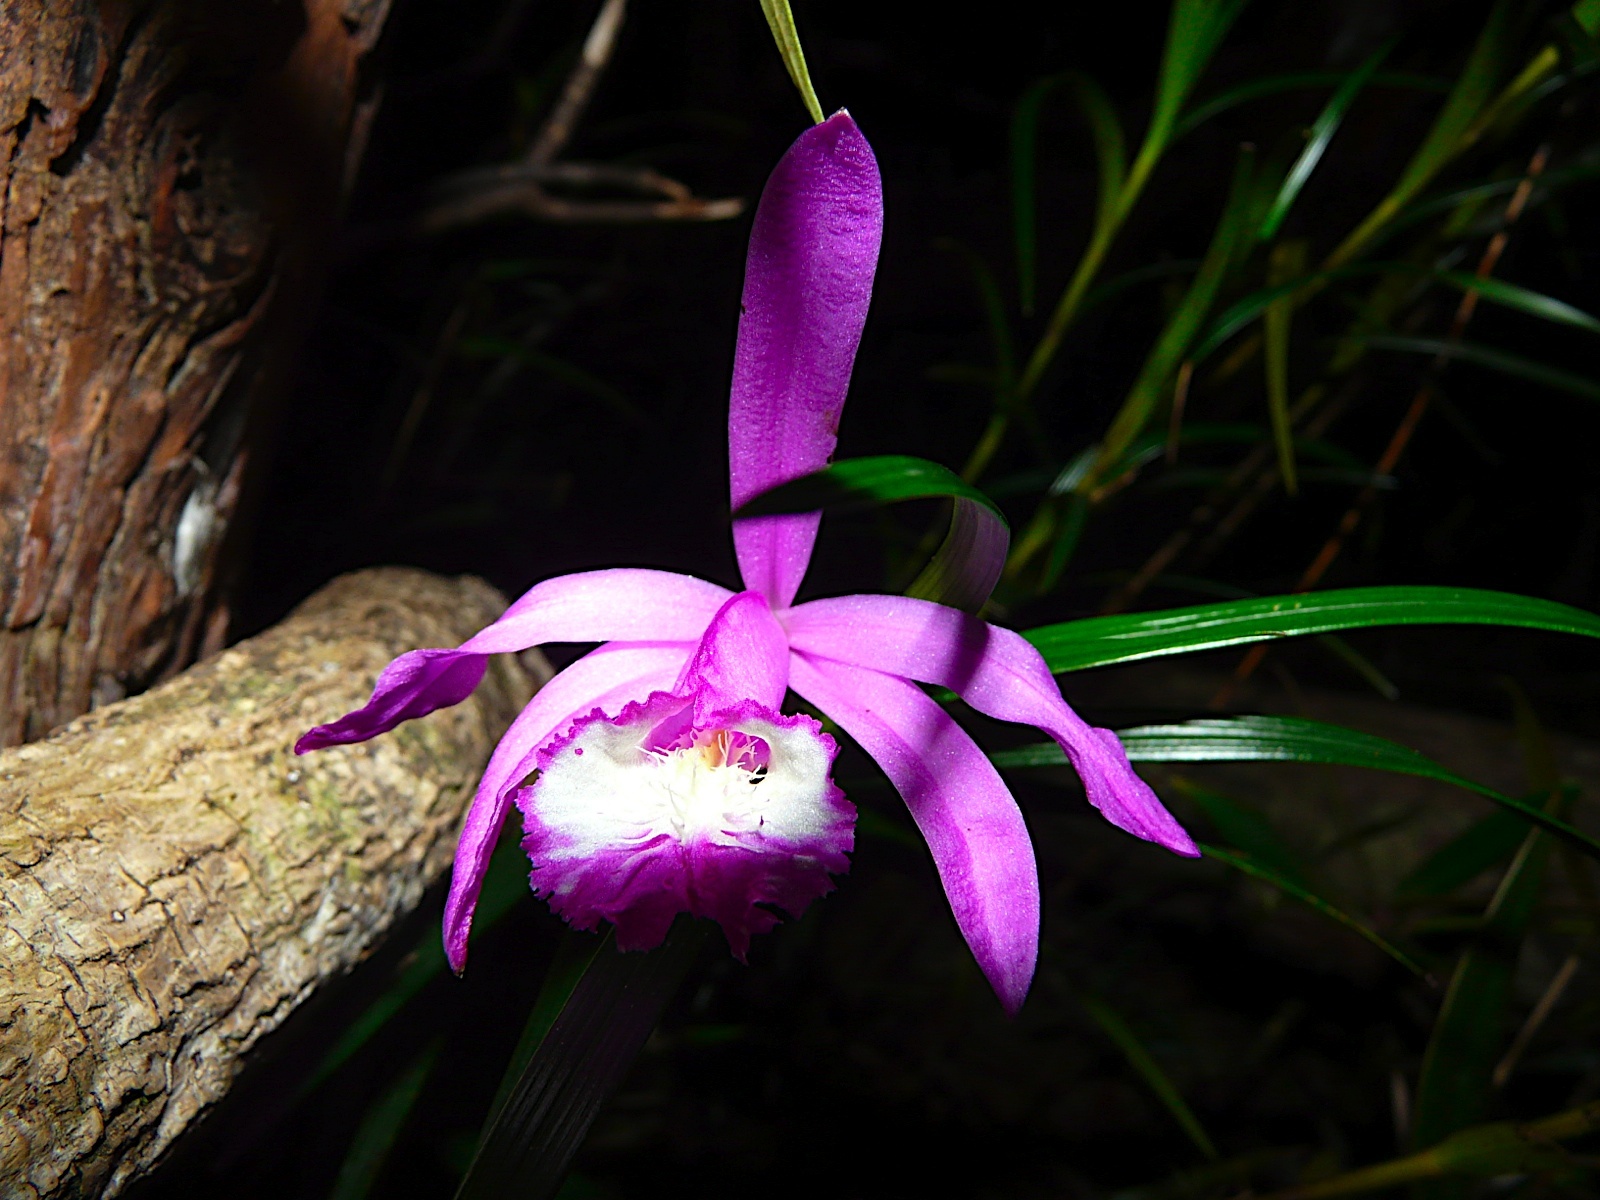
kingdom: Plantae
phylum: Tracheophyta
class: Liliopsida
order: Asparagales
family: Orchidaceae
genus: Sobralia
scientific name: Sobralia stenophylla
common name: Thin leafed sobralia
